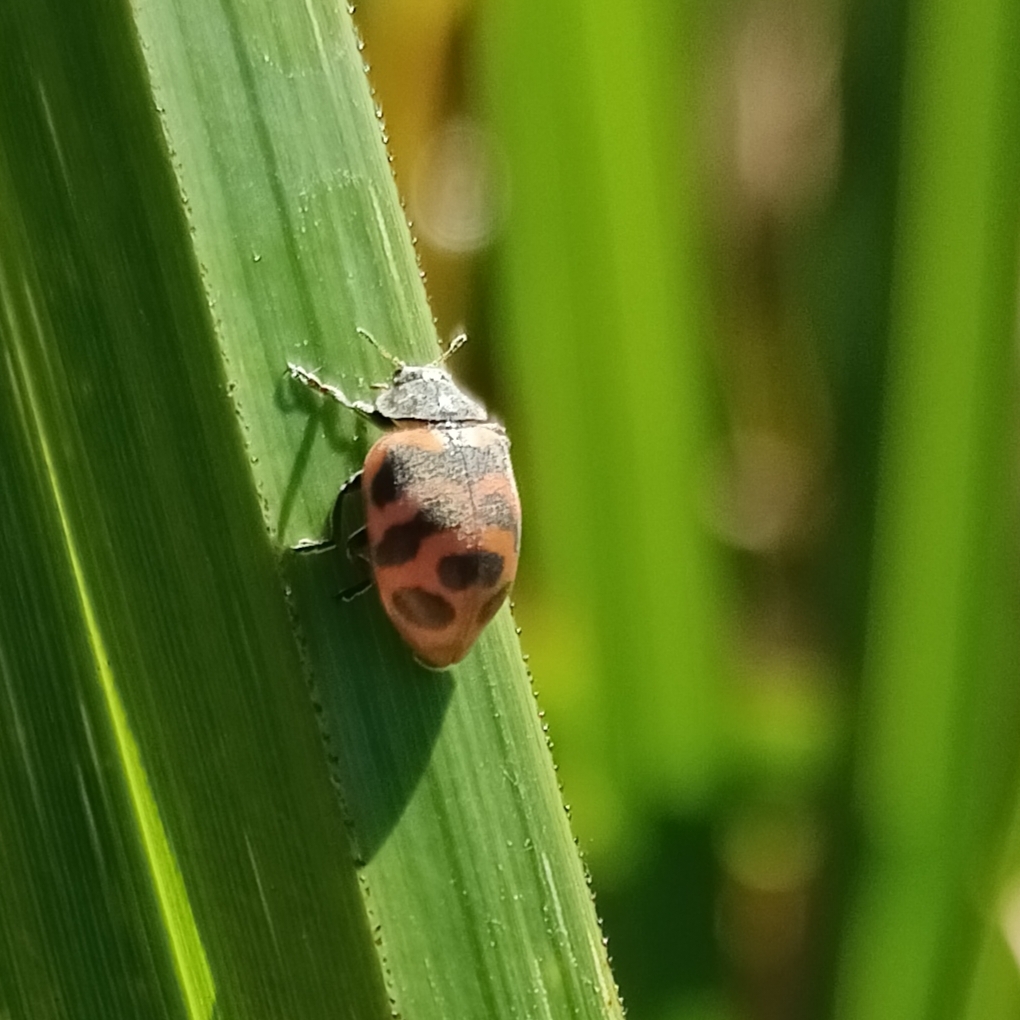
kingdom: Animalia
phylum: Arthropoda
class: Insecta
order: Coleoptera
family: Coccinellidae
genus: Chnootriba
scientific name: Chnootriba
